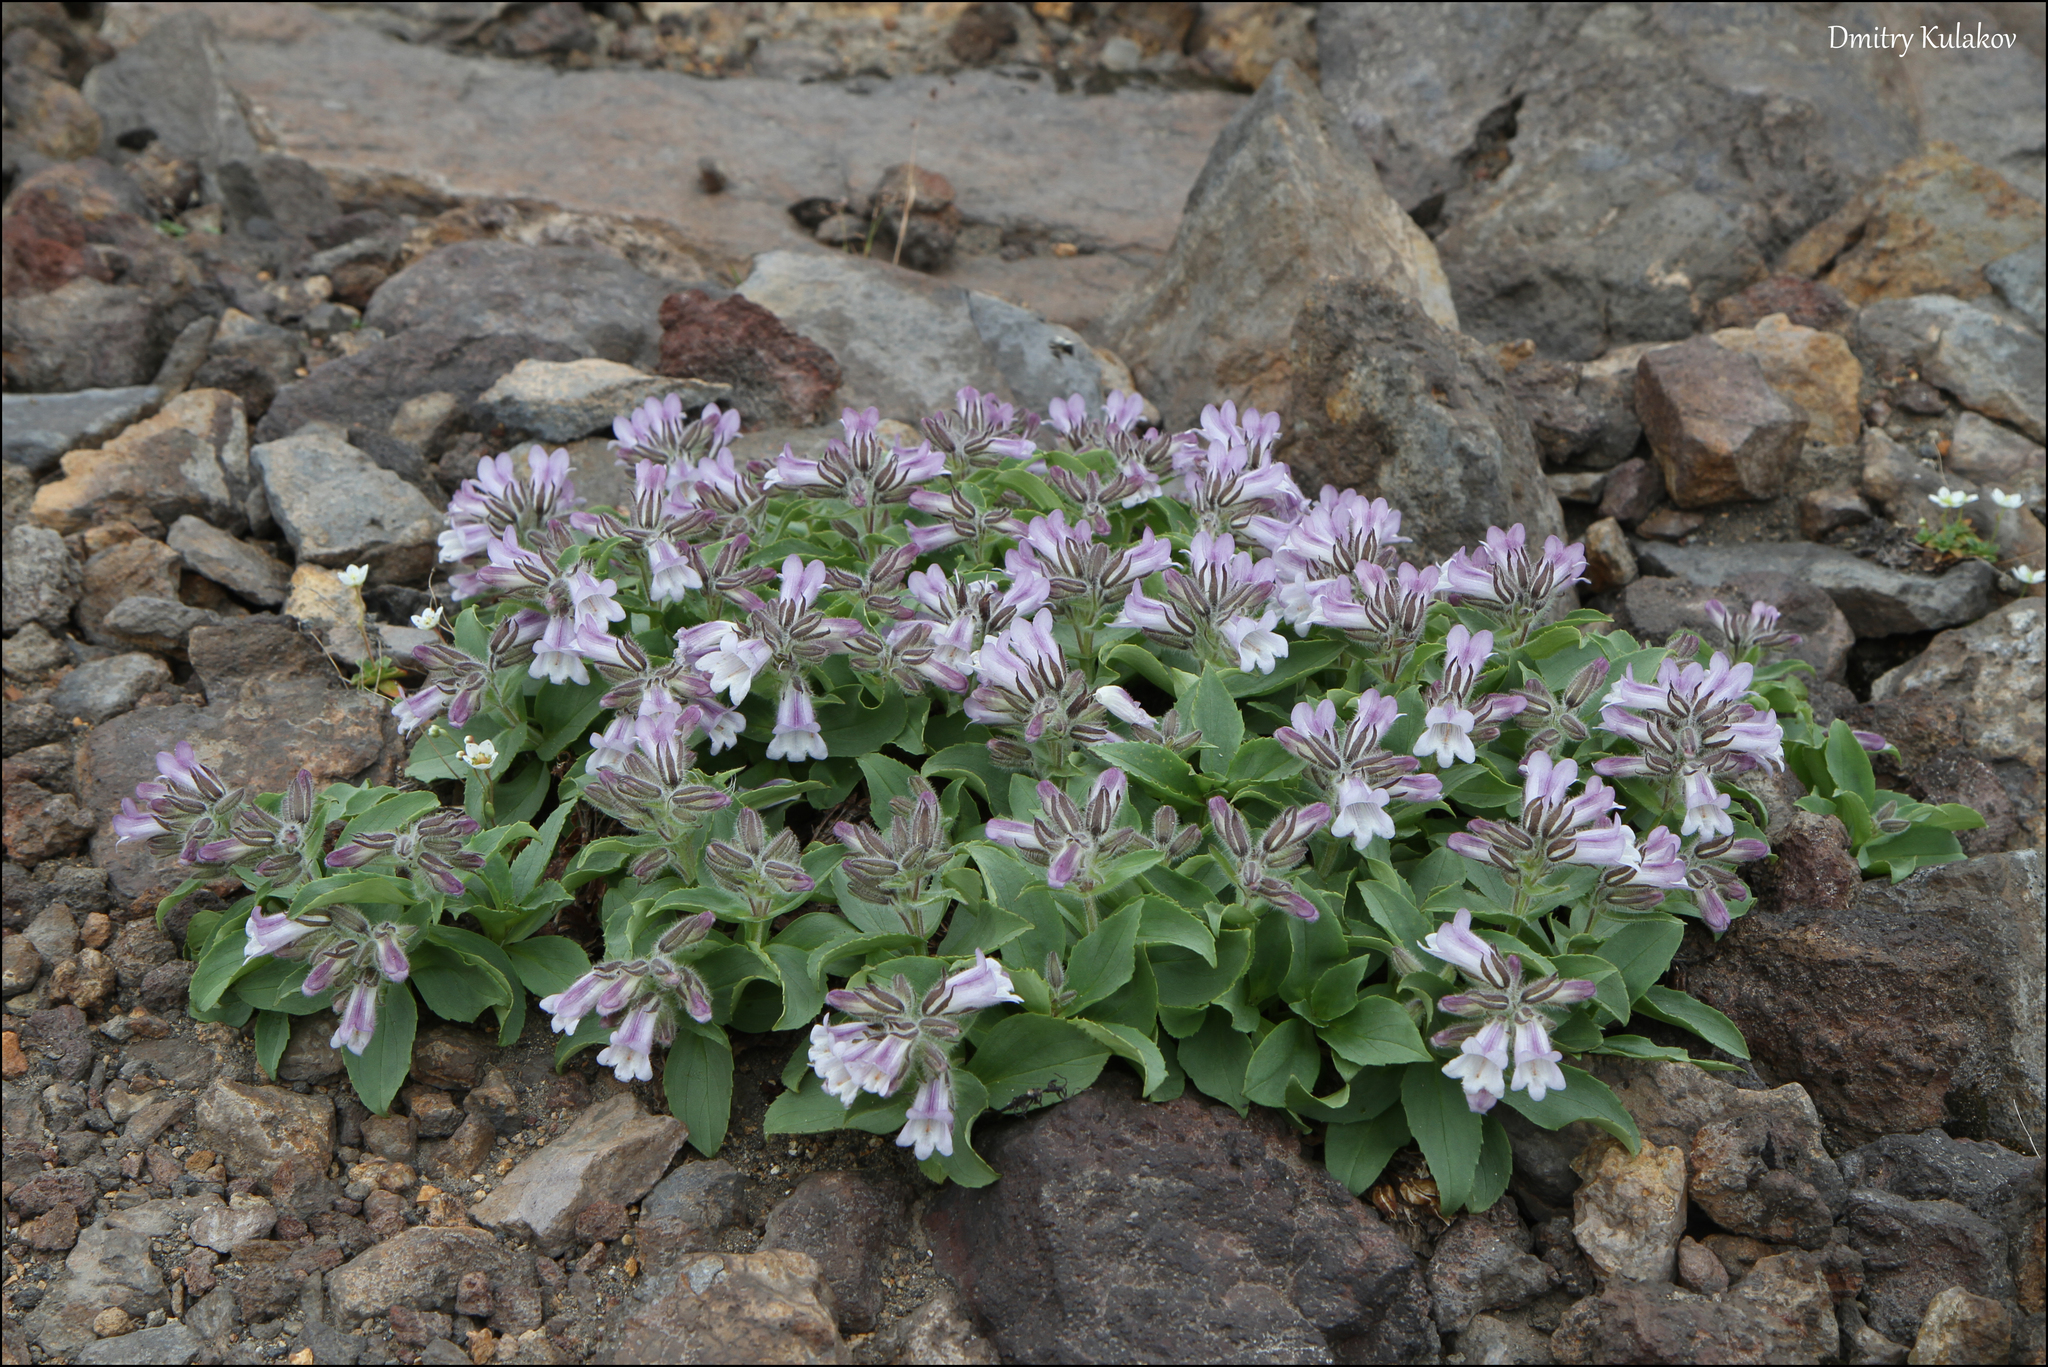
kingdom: Plantae
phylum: Tracheophyta
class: Magnoliopsida
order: Lamiales
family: Plantaginaceae
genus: Pennellianthus
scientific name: Pennellianthus frutescens
